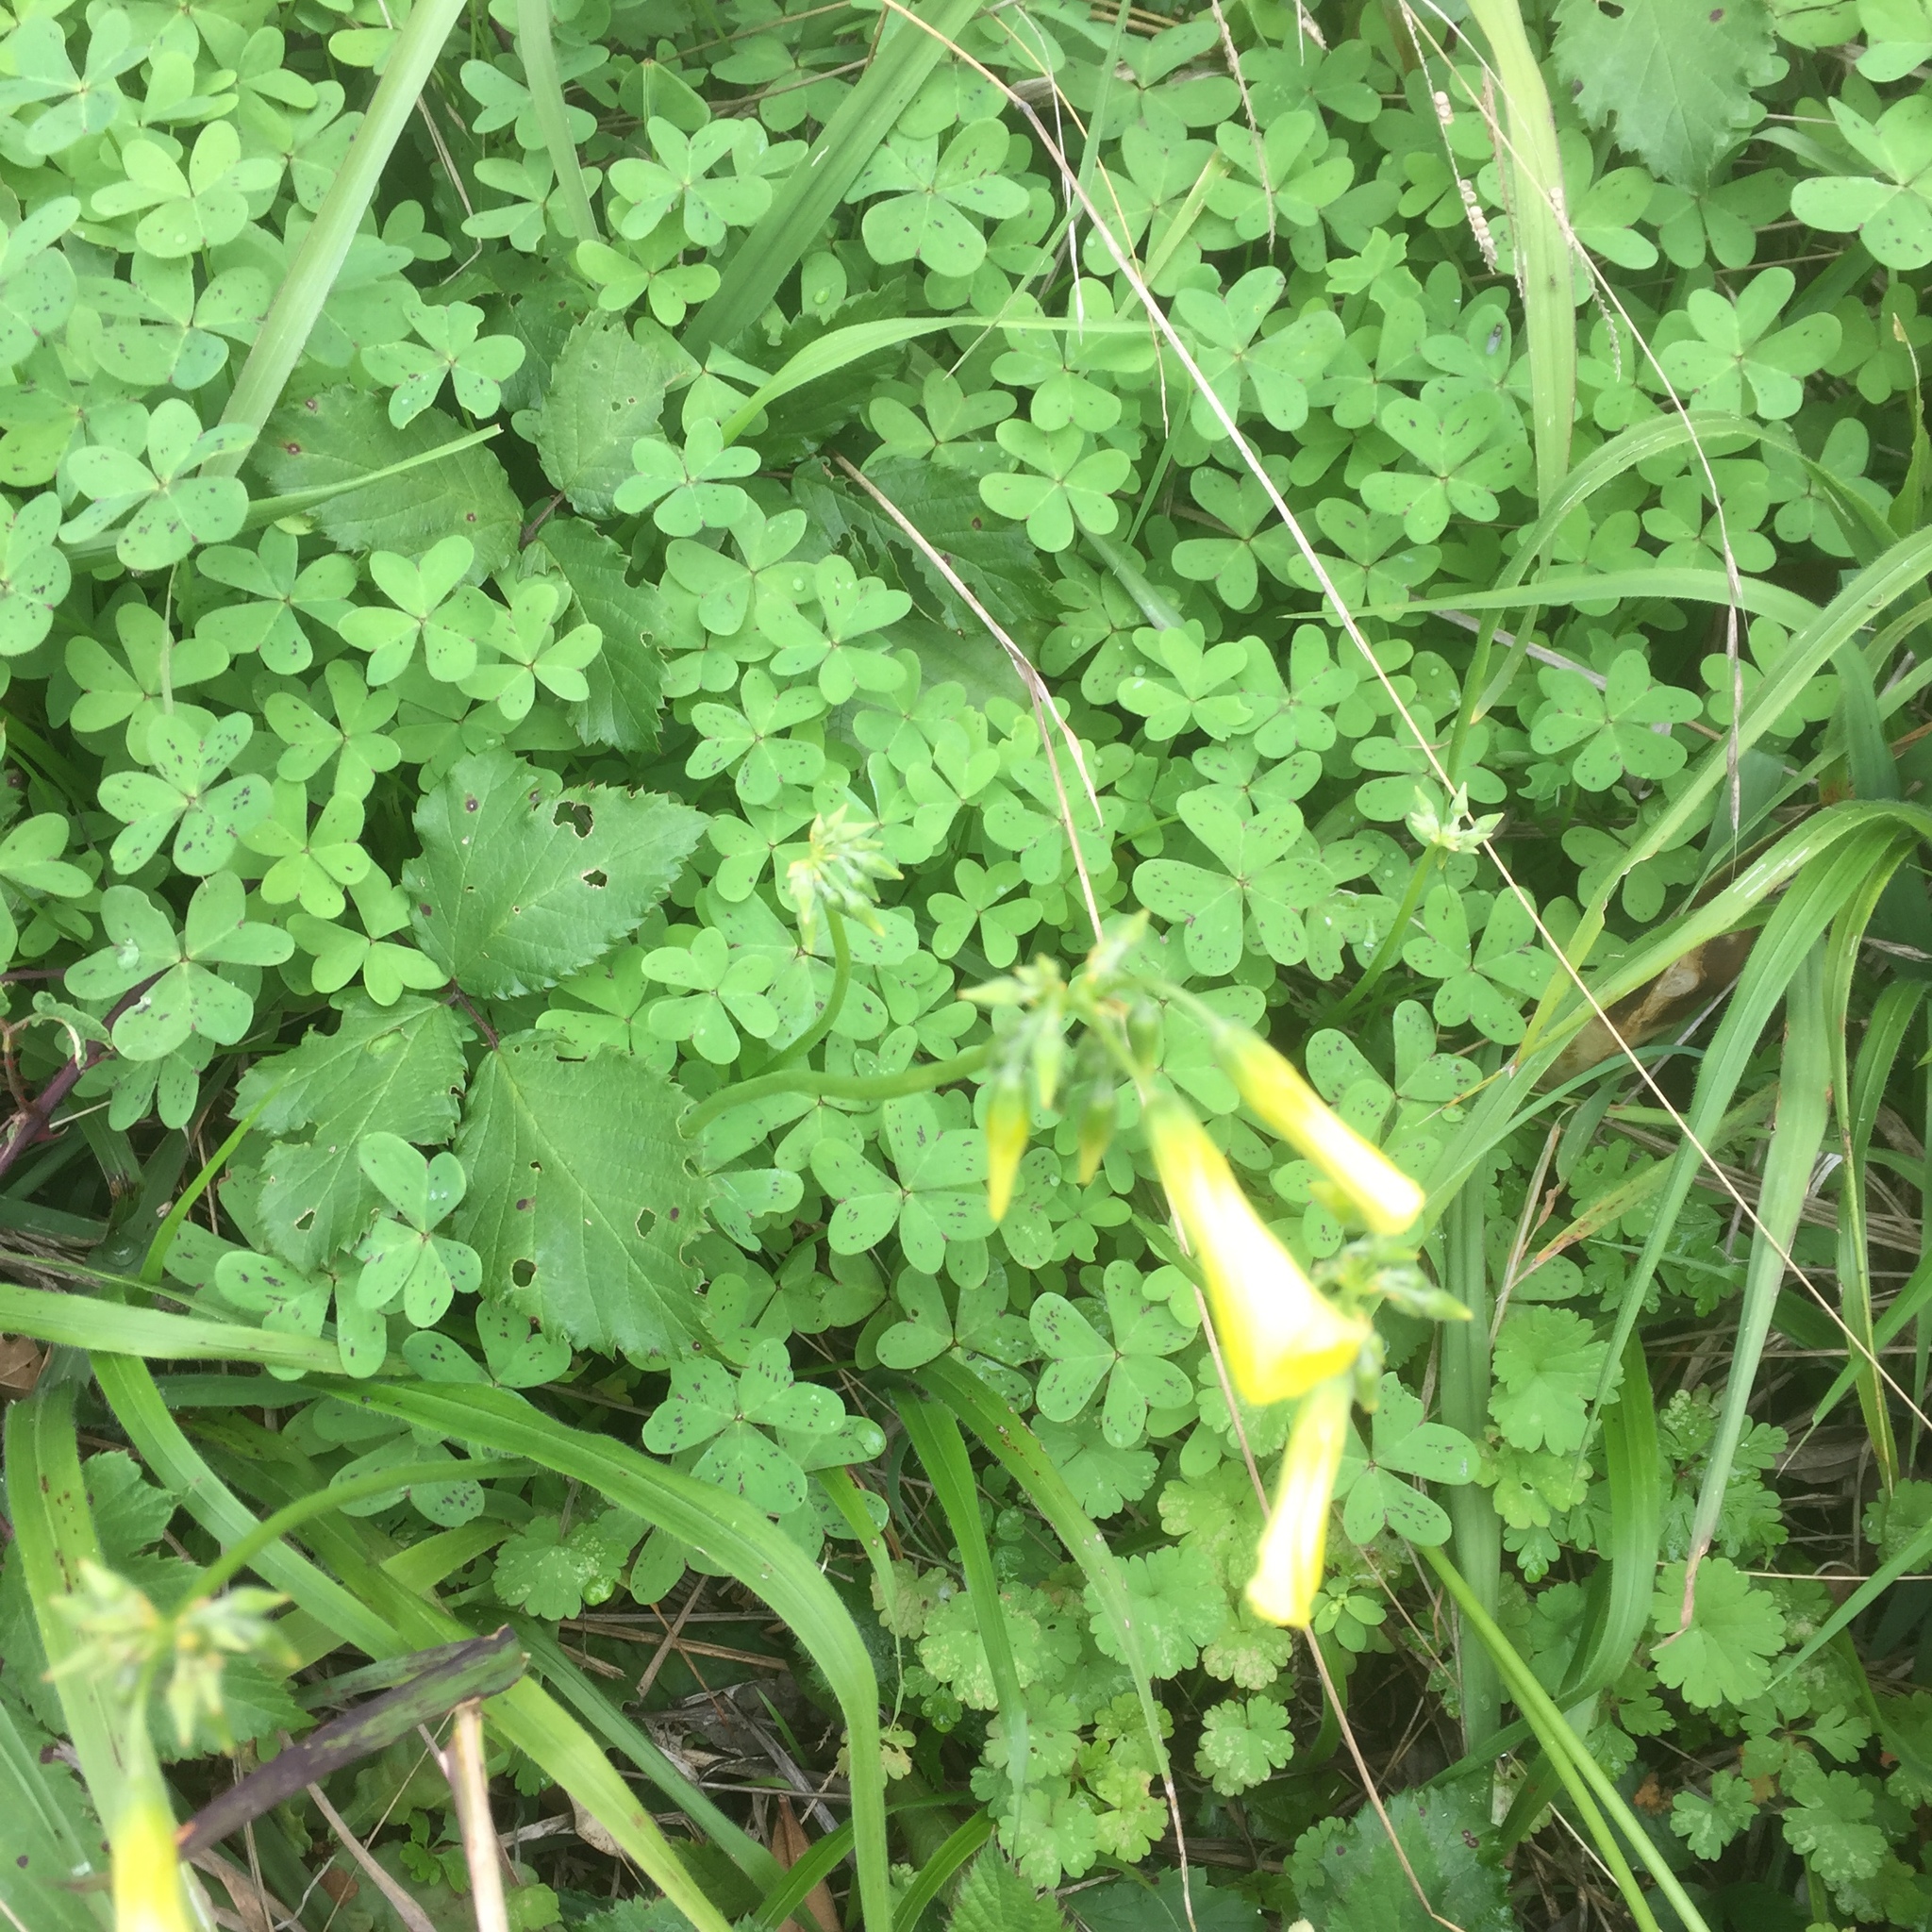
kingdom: Plantae
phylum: Tracheophyta
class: Magnoliopsida
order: Oxalidales
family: Oxalidaceae
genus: Oxalis
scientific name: Oxalis pes-caprae
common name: Bermuda-buttercup
